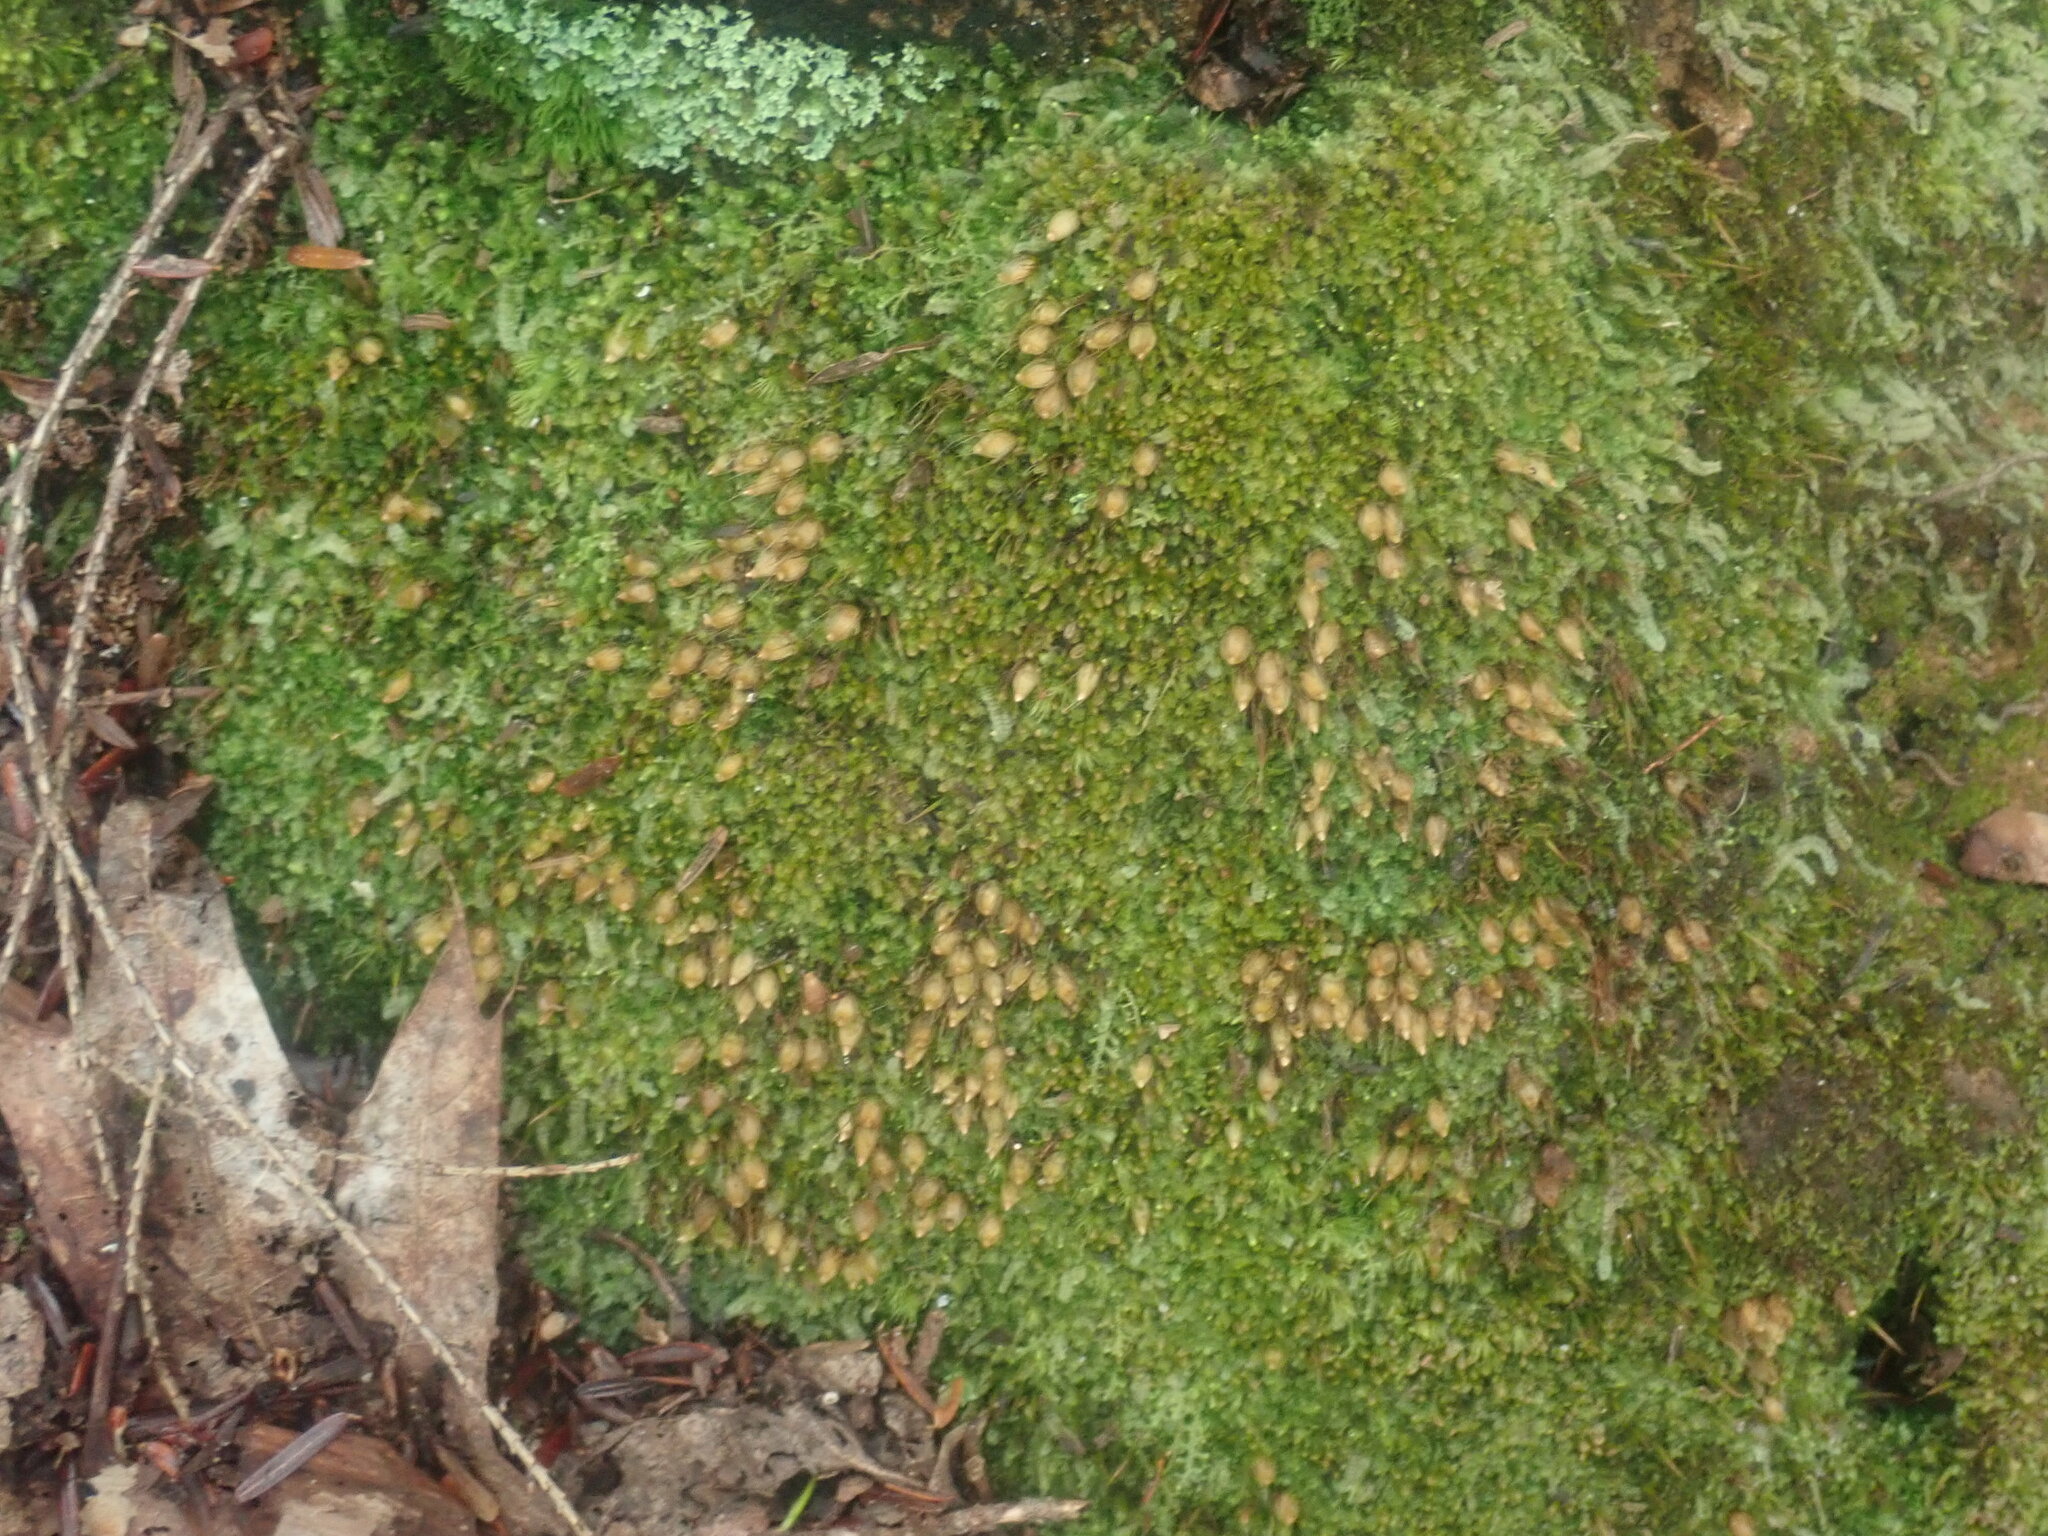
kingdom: Plantae
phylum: Bryophyta
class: Bryopsida
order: Diphysciales
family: Diphysciaceae
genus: Diphyscium
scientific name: Diphyscium foliosum
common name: Nut moss
